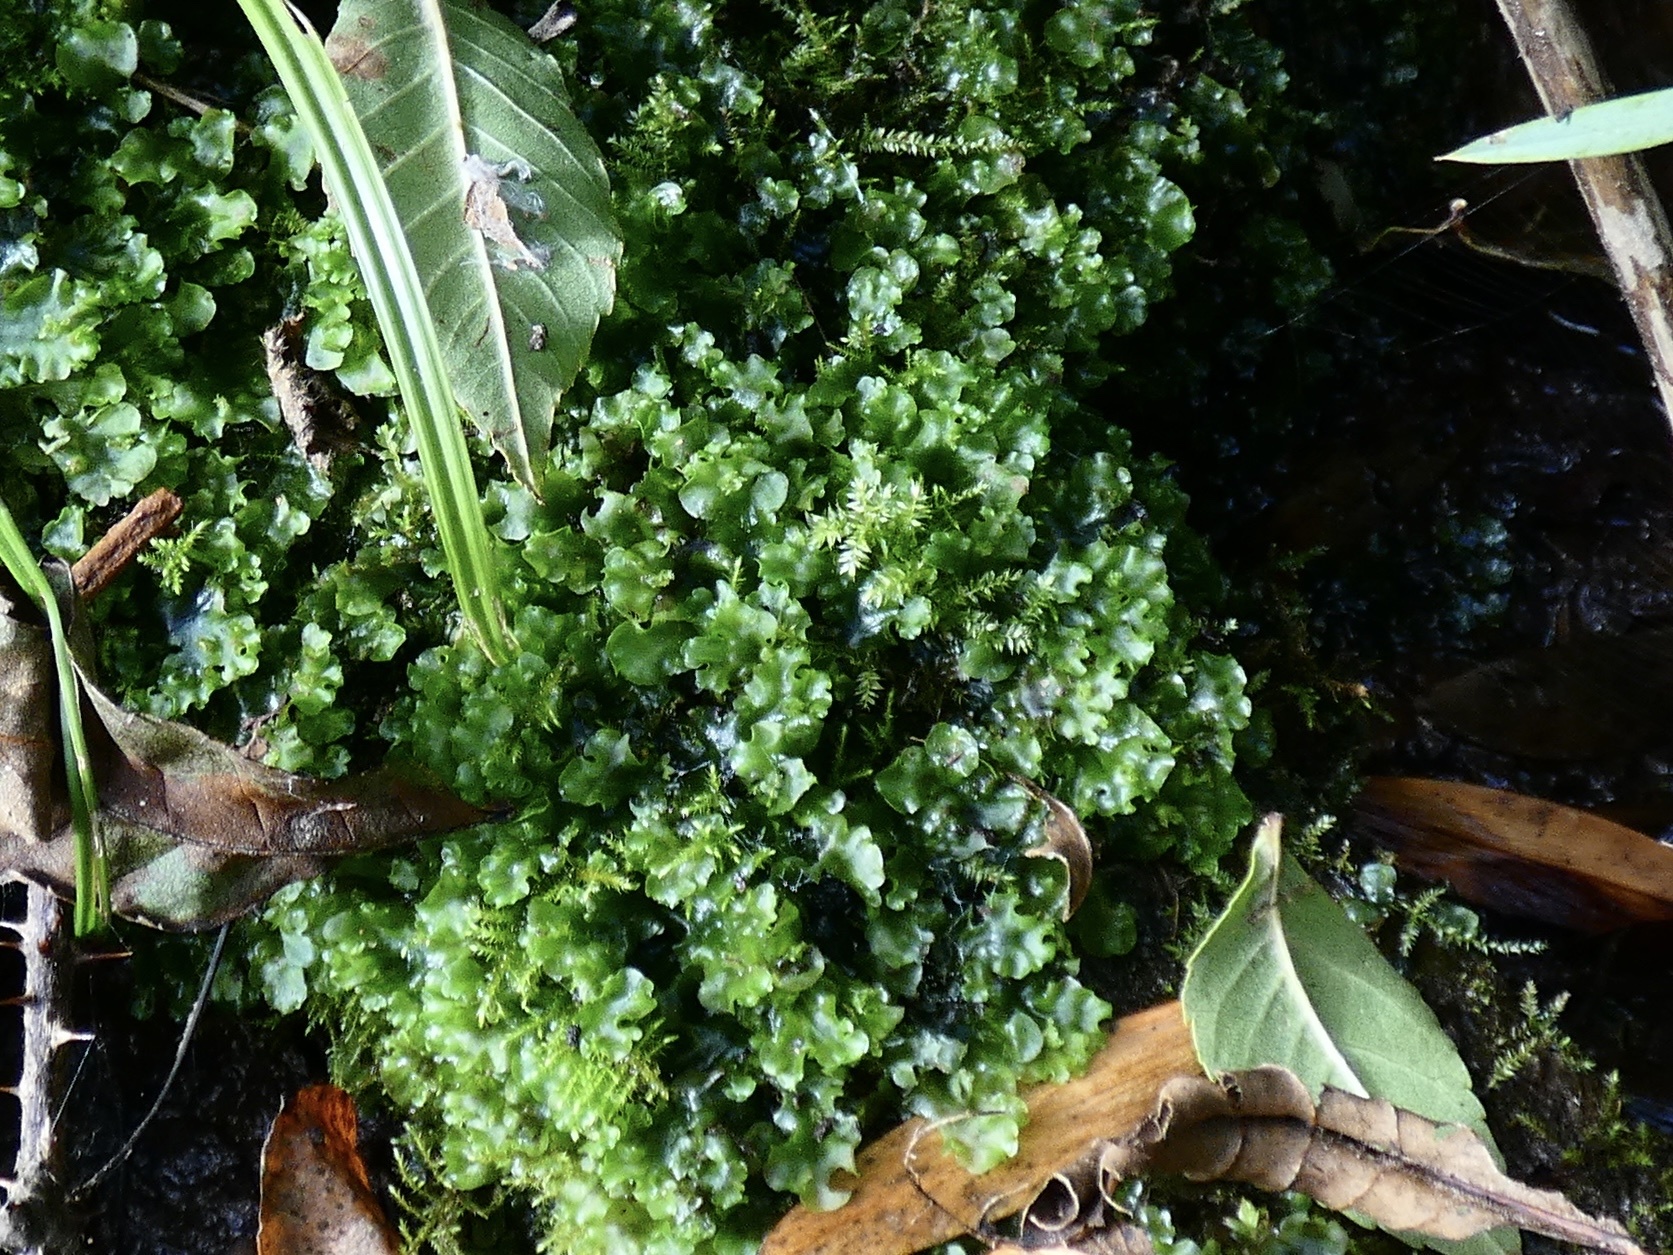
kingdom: Plantae
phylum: Marchantiophyta
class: Jungermanniopsida
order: Pelliales
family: Pelliaceae
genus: Apopellia
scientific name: Apopellia endiviifolia
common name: Endive pellia
